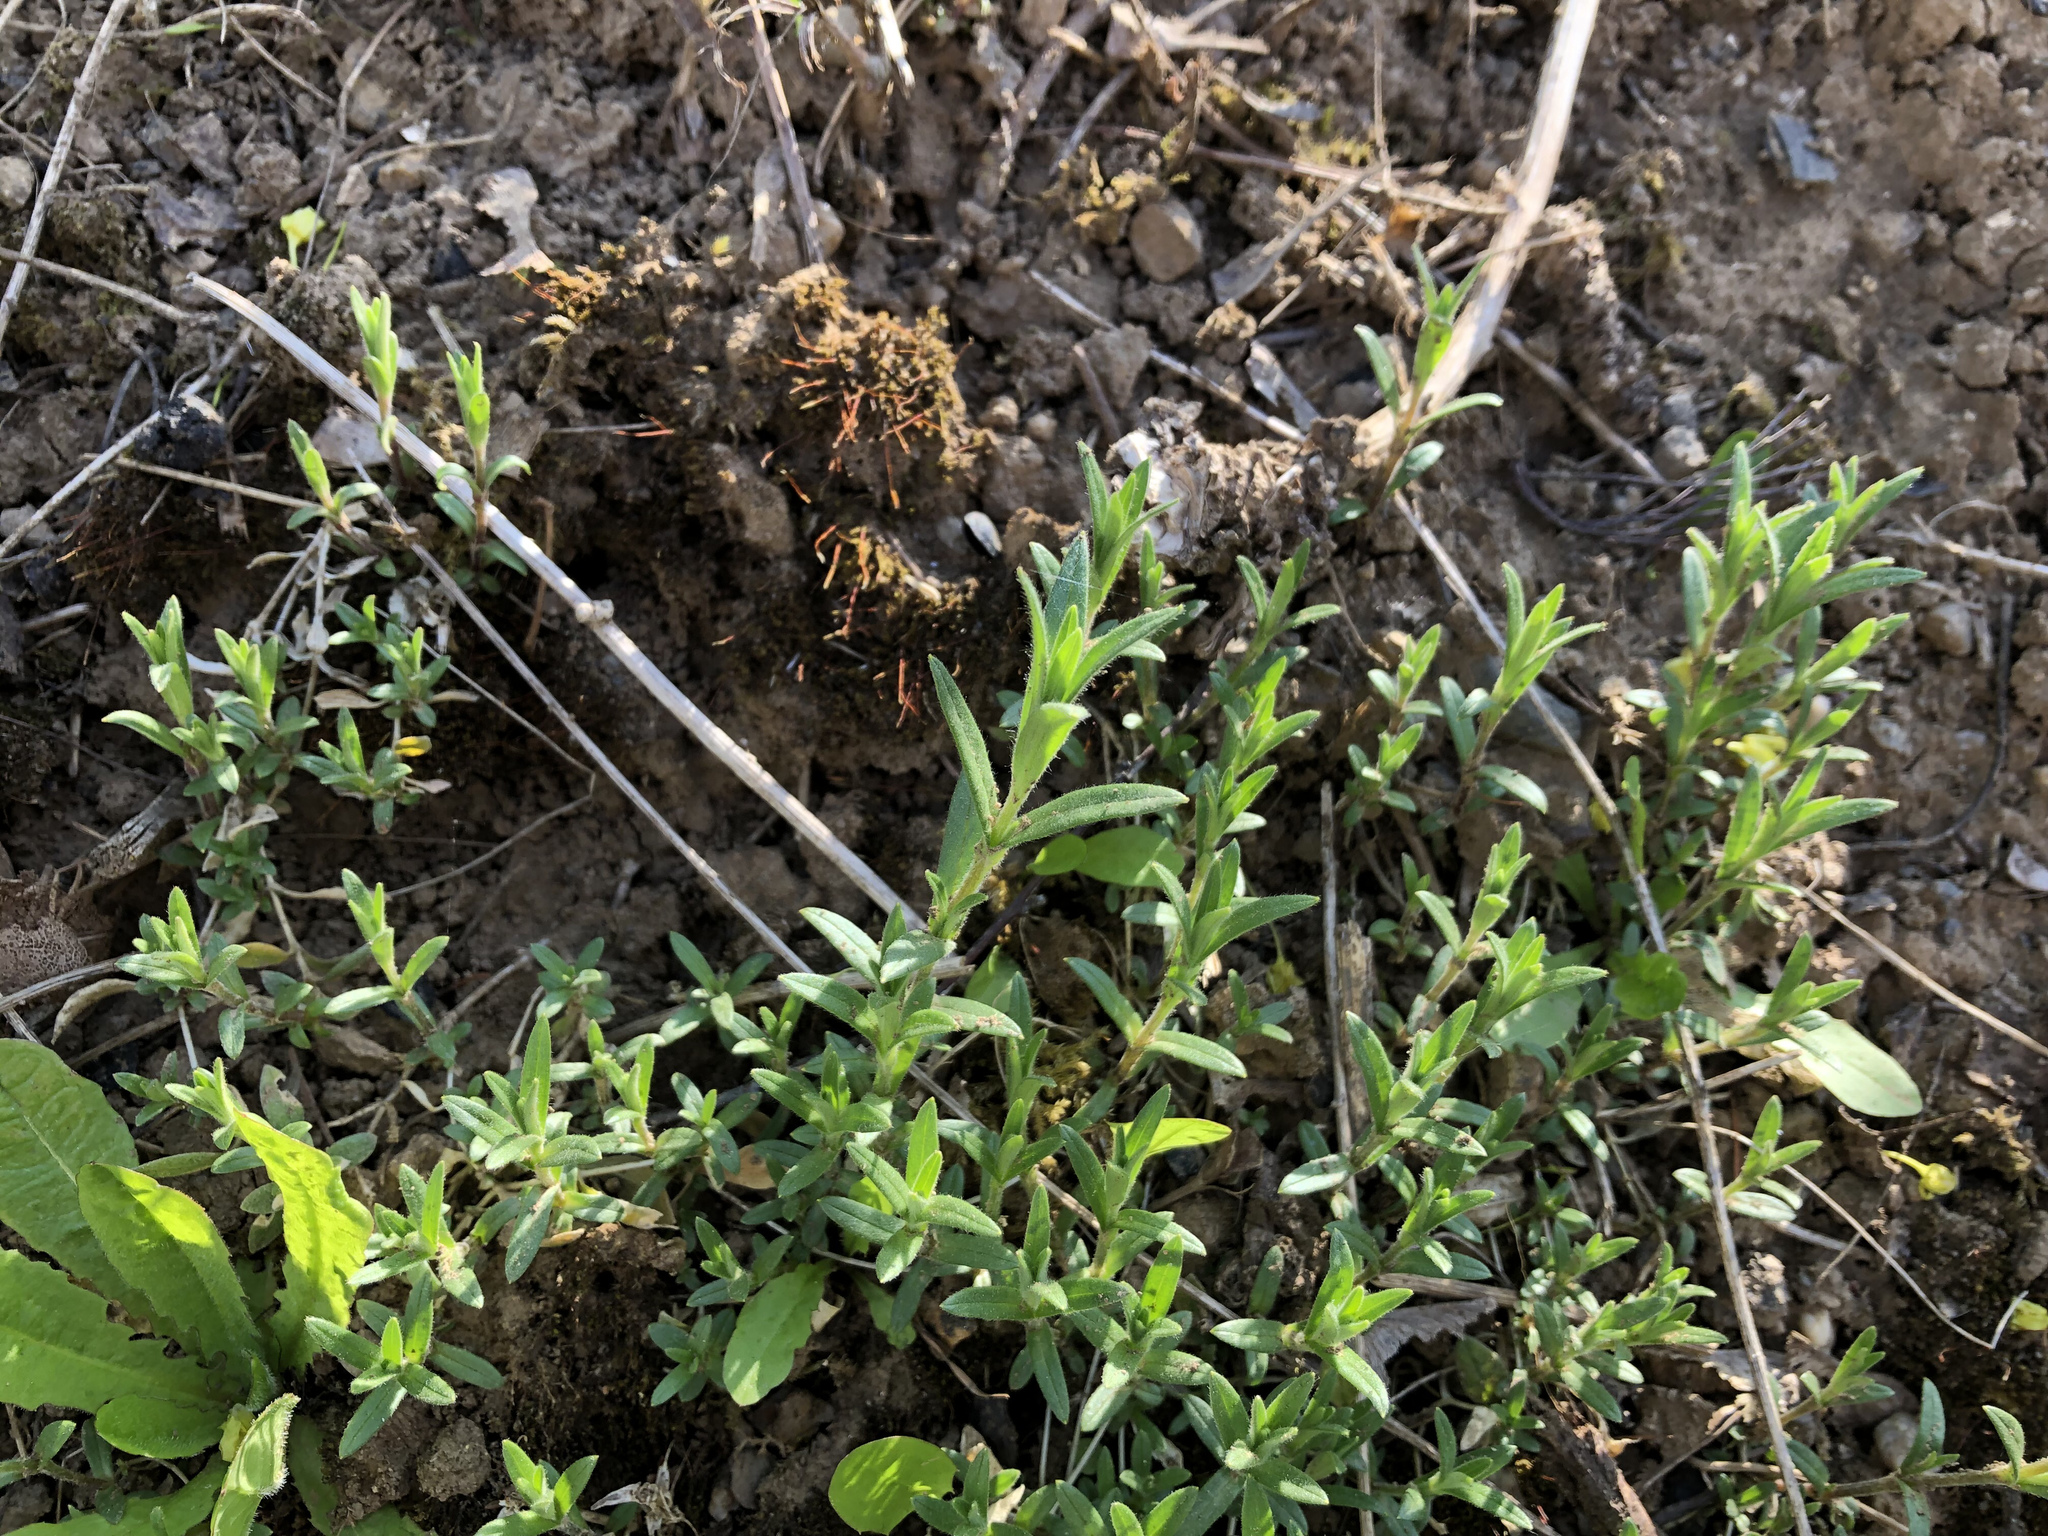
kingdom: Plantae
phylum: Tracheophyta
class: Magnoliopsida
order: Caryophyllales
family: Caryophyllaceae
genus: Cerastium
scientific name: Cerastium arvense
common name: Field mouse-ear
